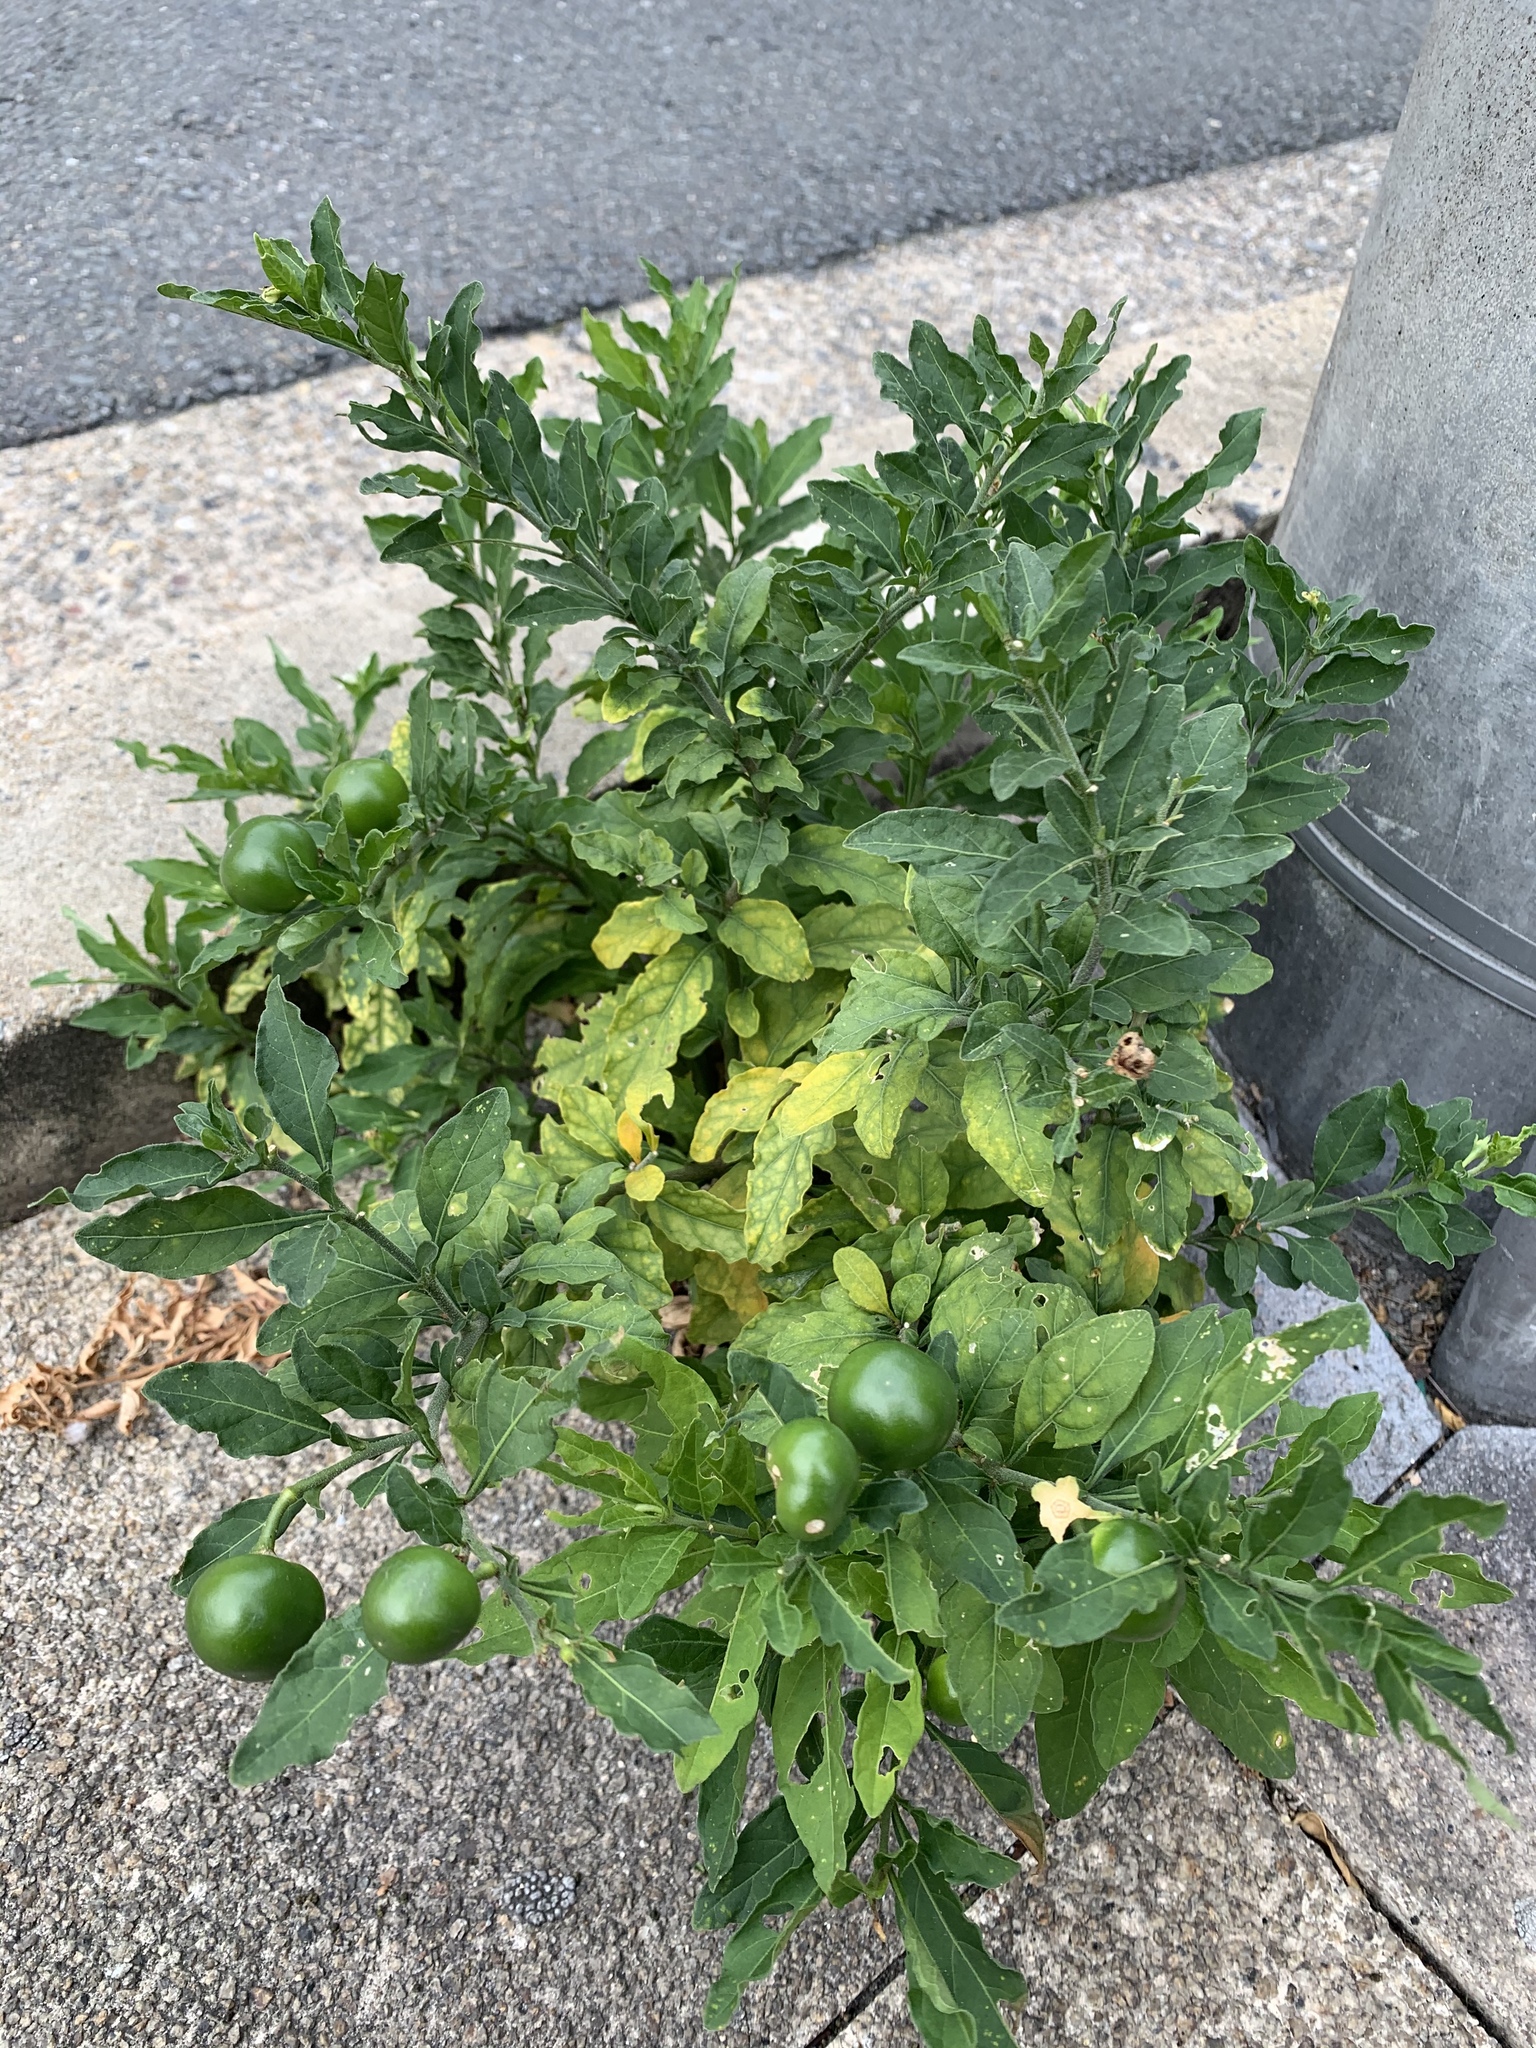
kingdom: Plantae
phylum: Tracheophyta
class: Magnoliopsida
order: Solanales
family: Solanaceae
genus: Solanum
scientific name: Solanum pseudocapsicum
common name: Jerusalem cherry
